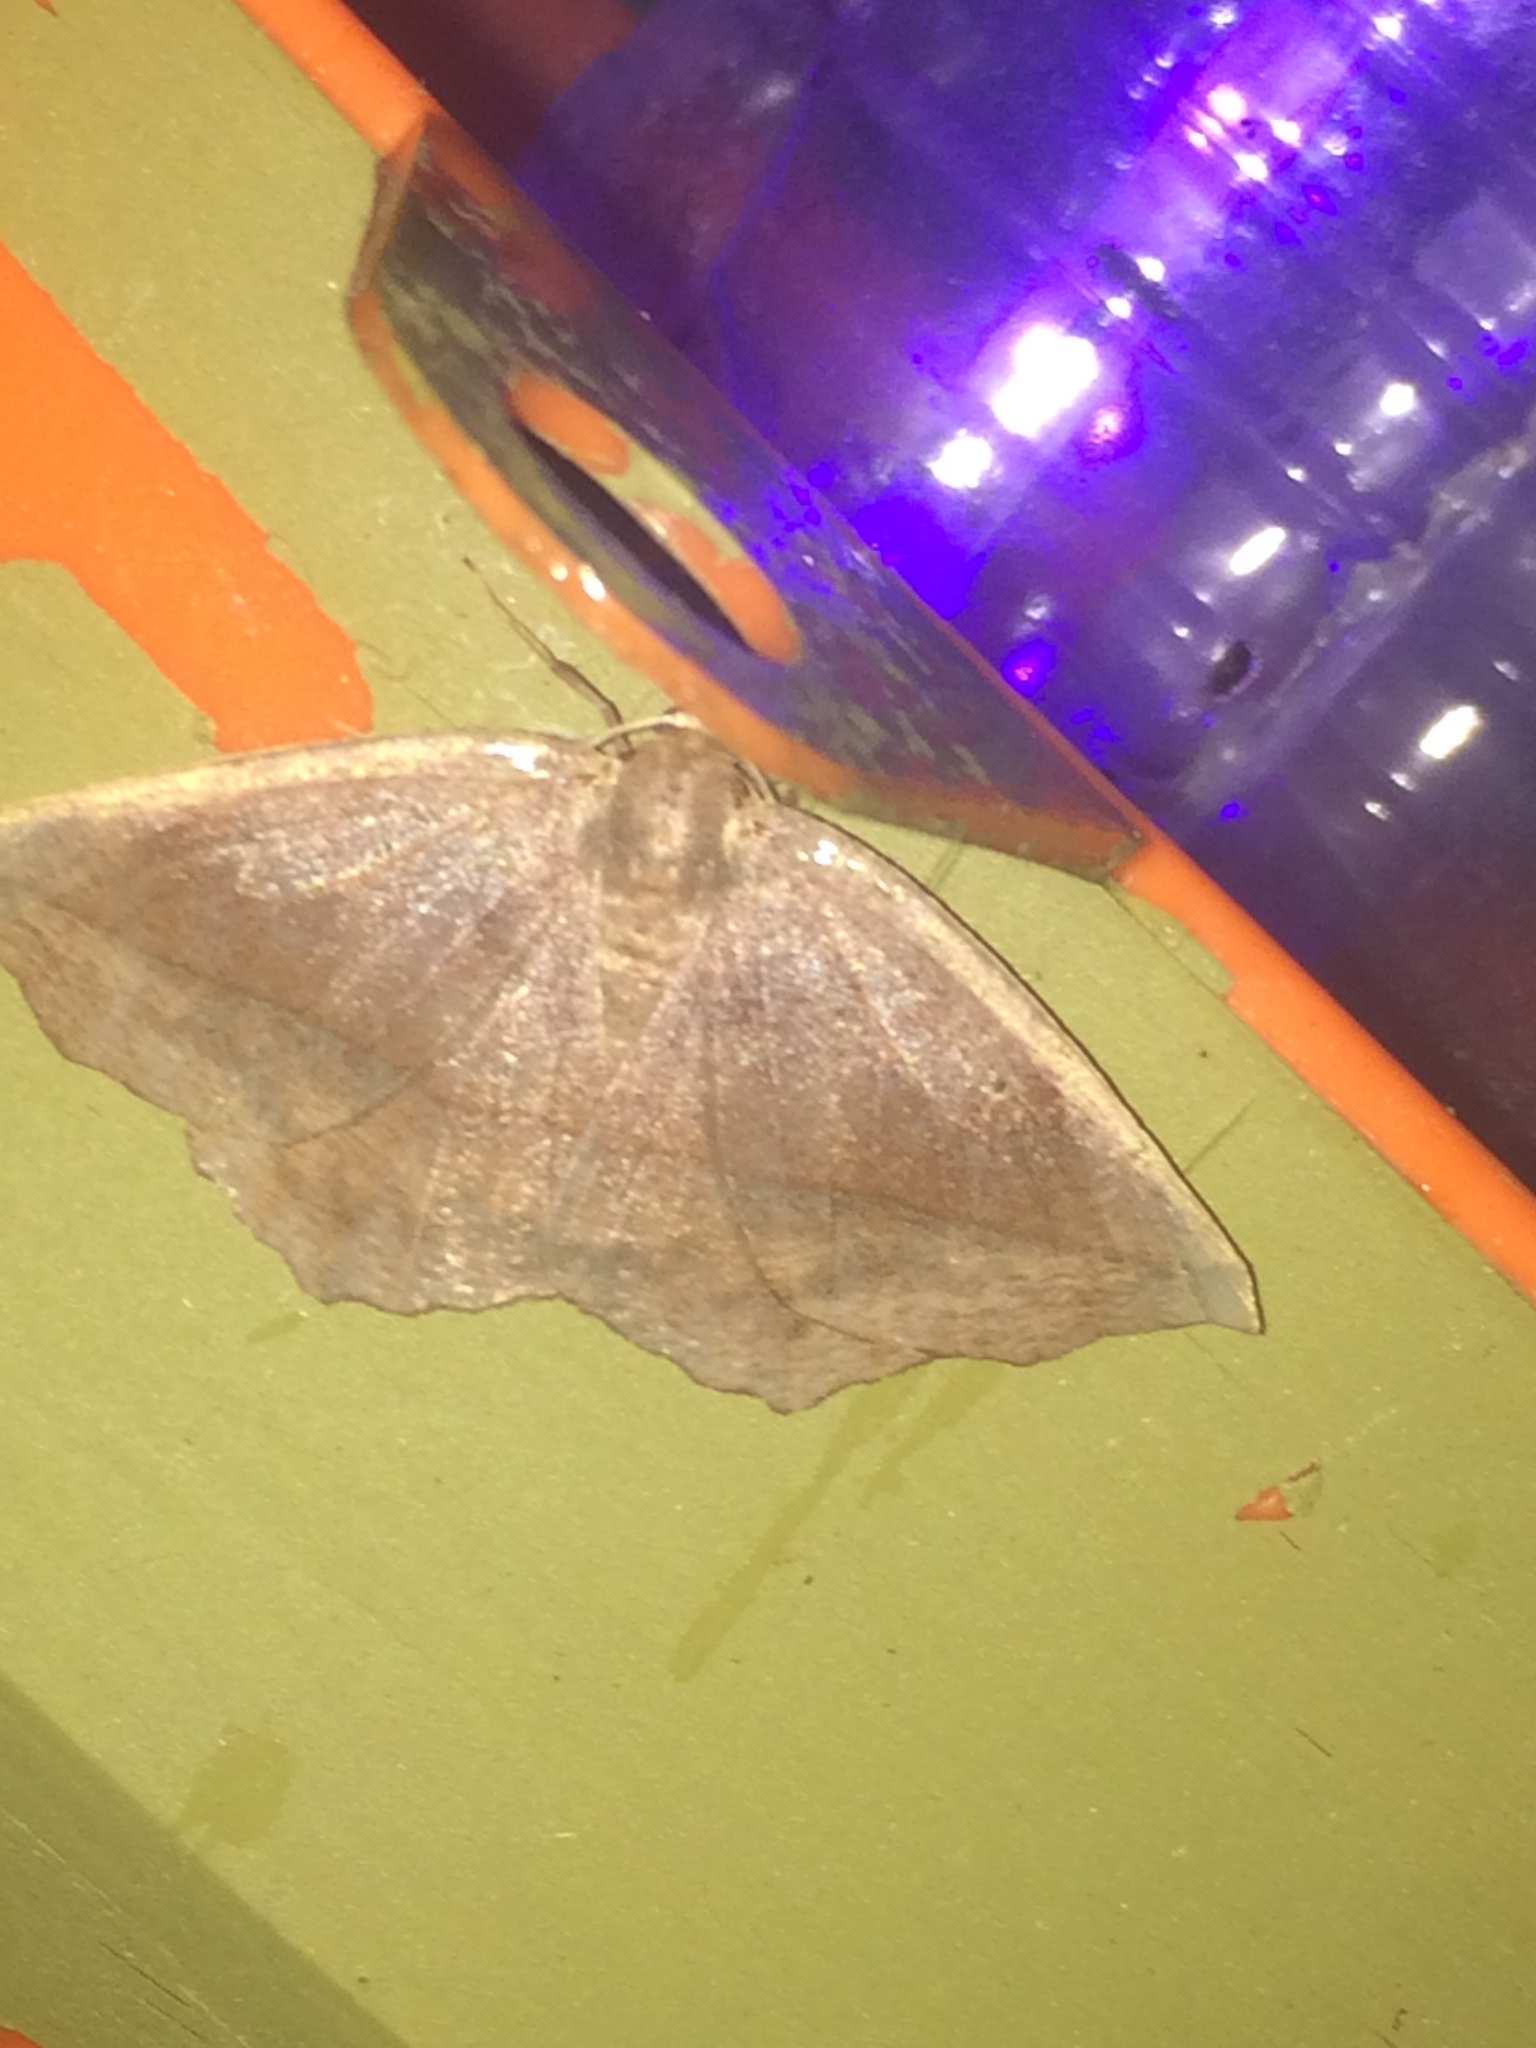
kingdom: Animalia
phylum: Arthropoda
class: Insecta
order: Lepidoptera
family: Geometridae
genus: Eutrapela
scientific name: Eutrapela clemataria
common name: Curved-toothed geometer
